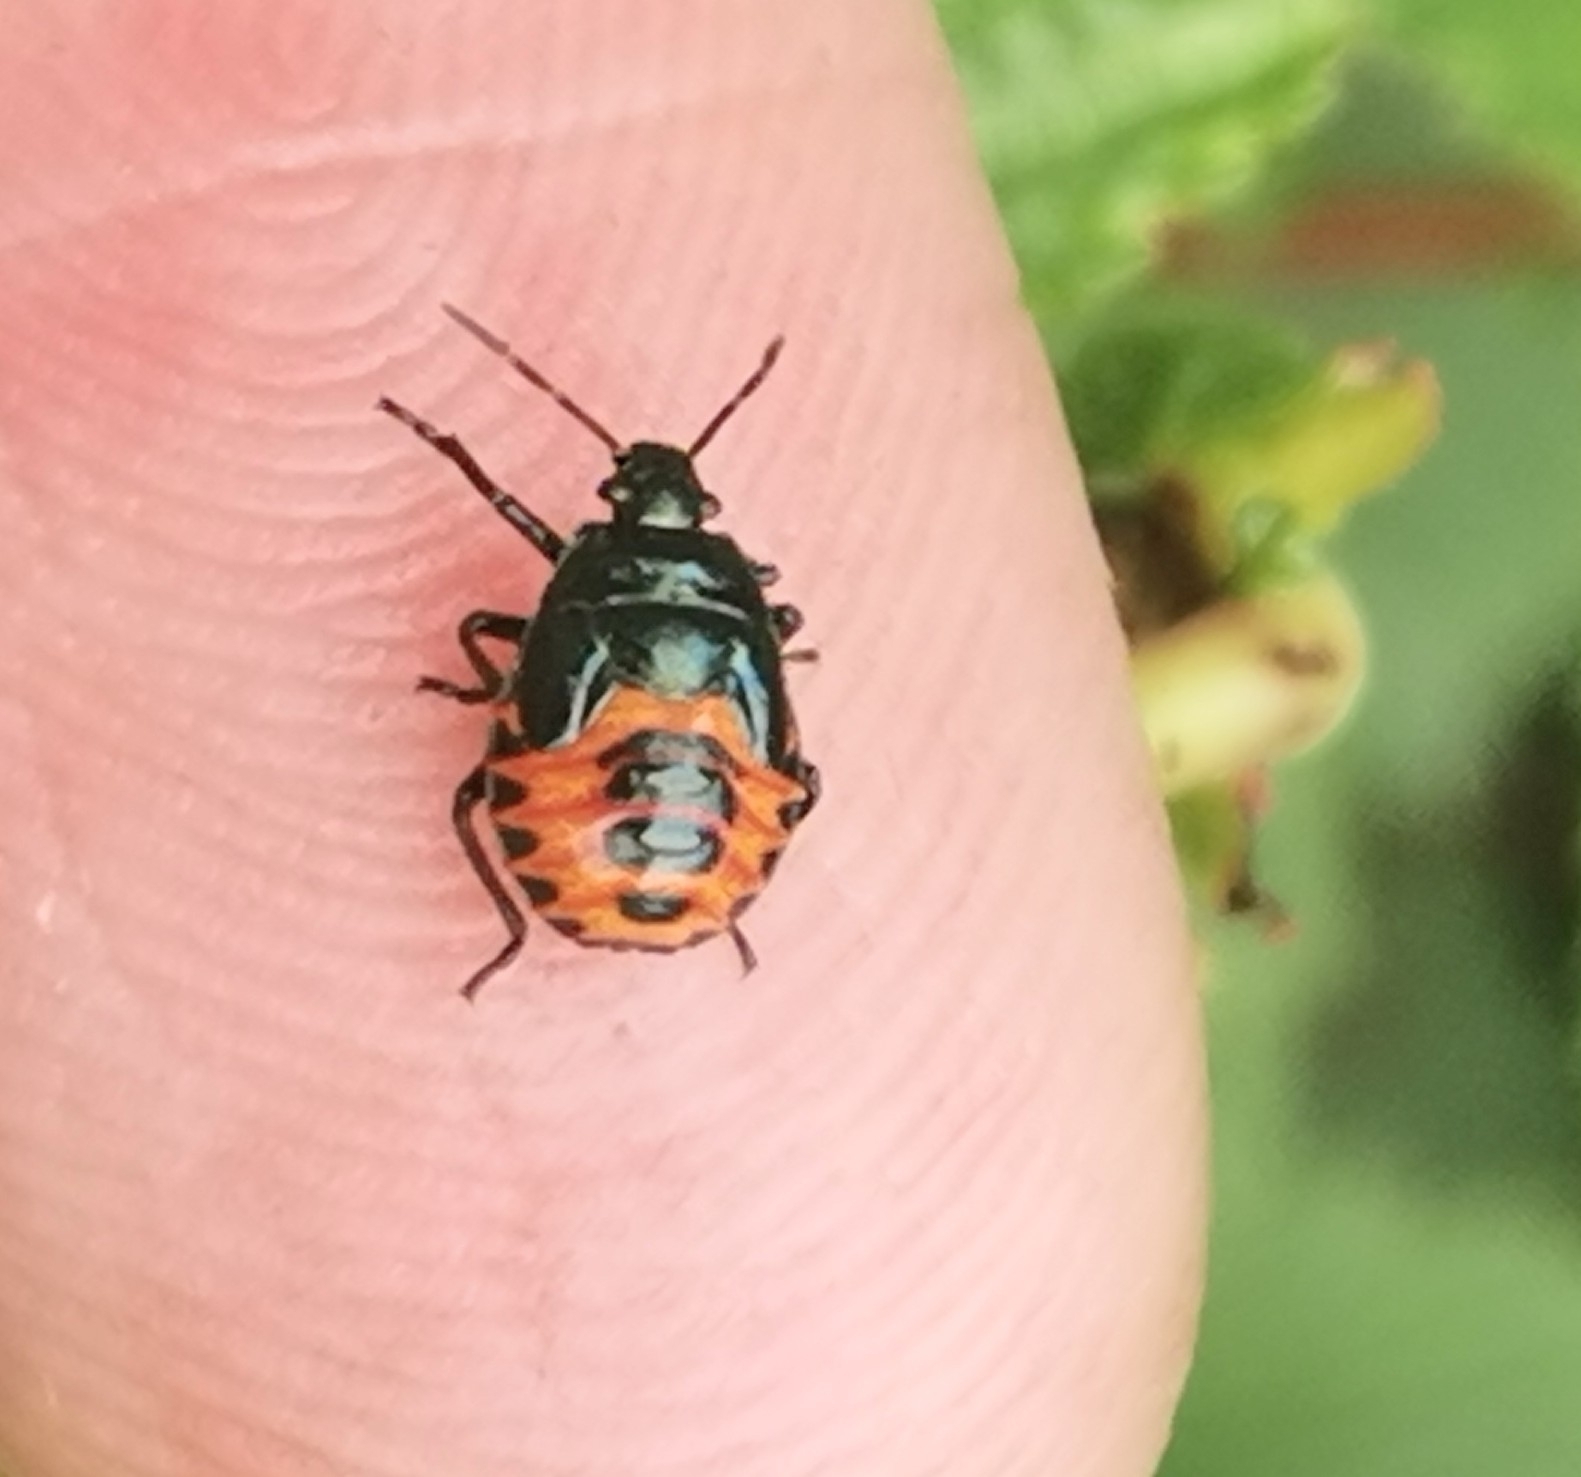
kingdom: Animalia
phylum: Arthropoda
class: Insecta
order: Hemiptera
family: Pentatomidae
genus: Zicrona
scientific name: Zicrona caerulea
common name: Blue shieldbug
